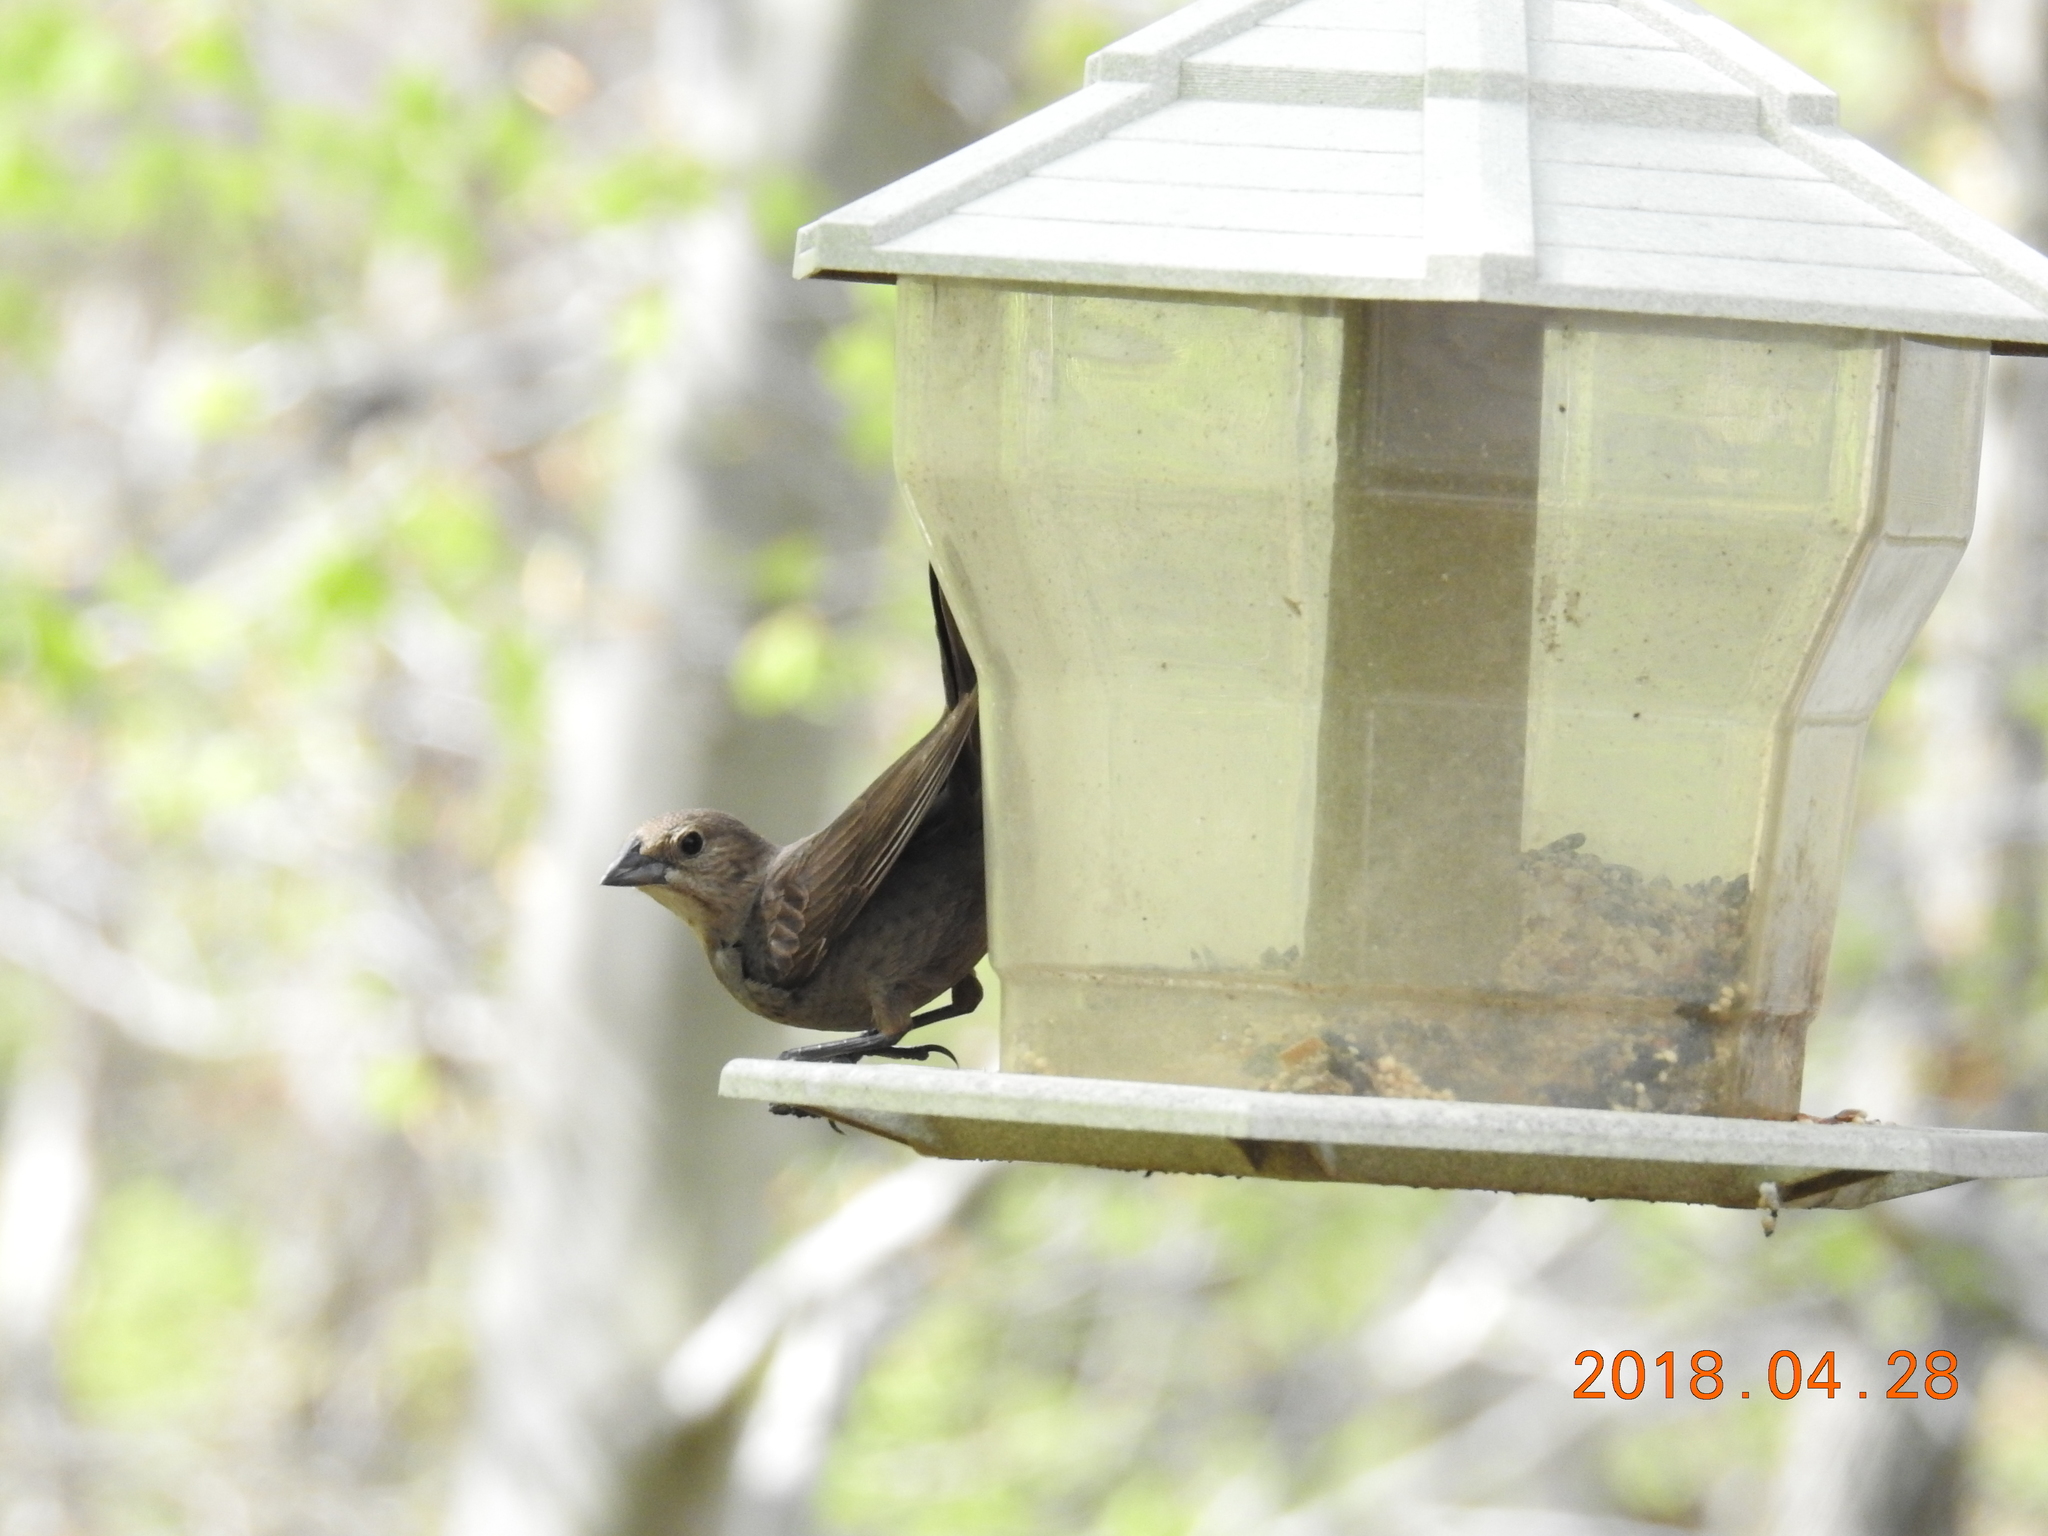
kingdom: Animalia
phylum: Chordata
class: Aves
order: Passeriformes
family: Icteridae
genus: Molothrus
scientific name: Molothrus ater
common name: Brown-headed cowbird
